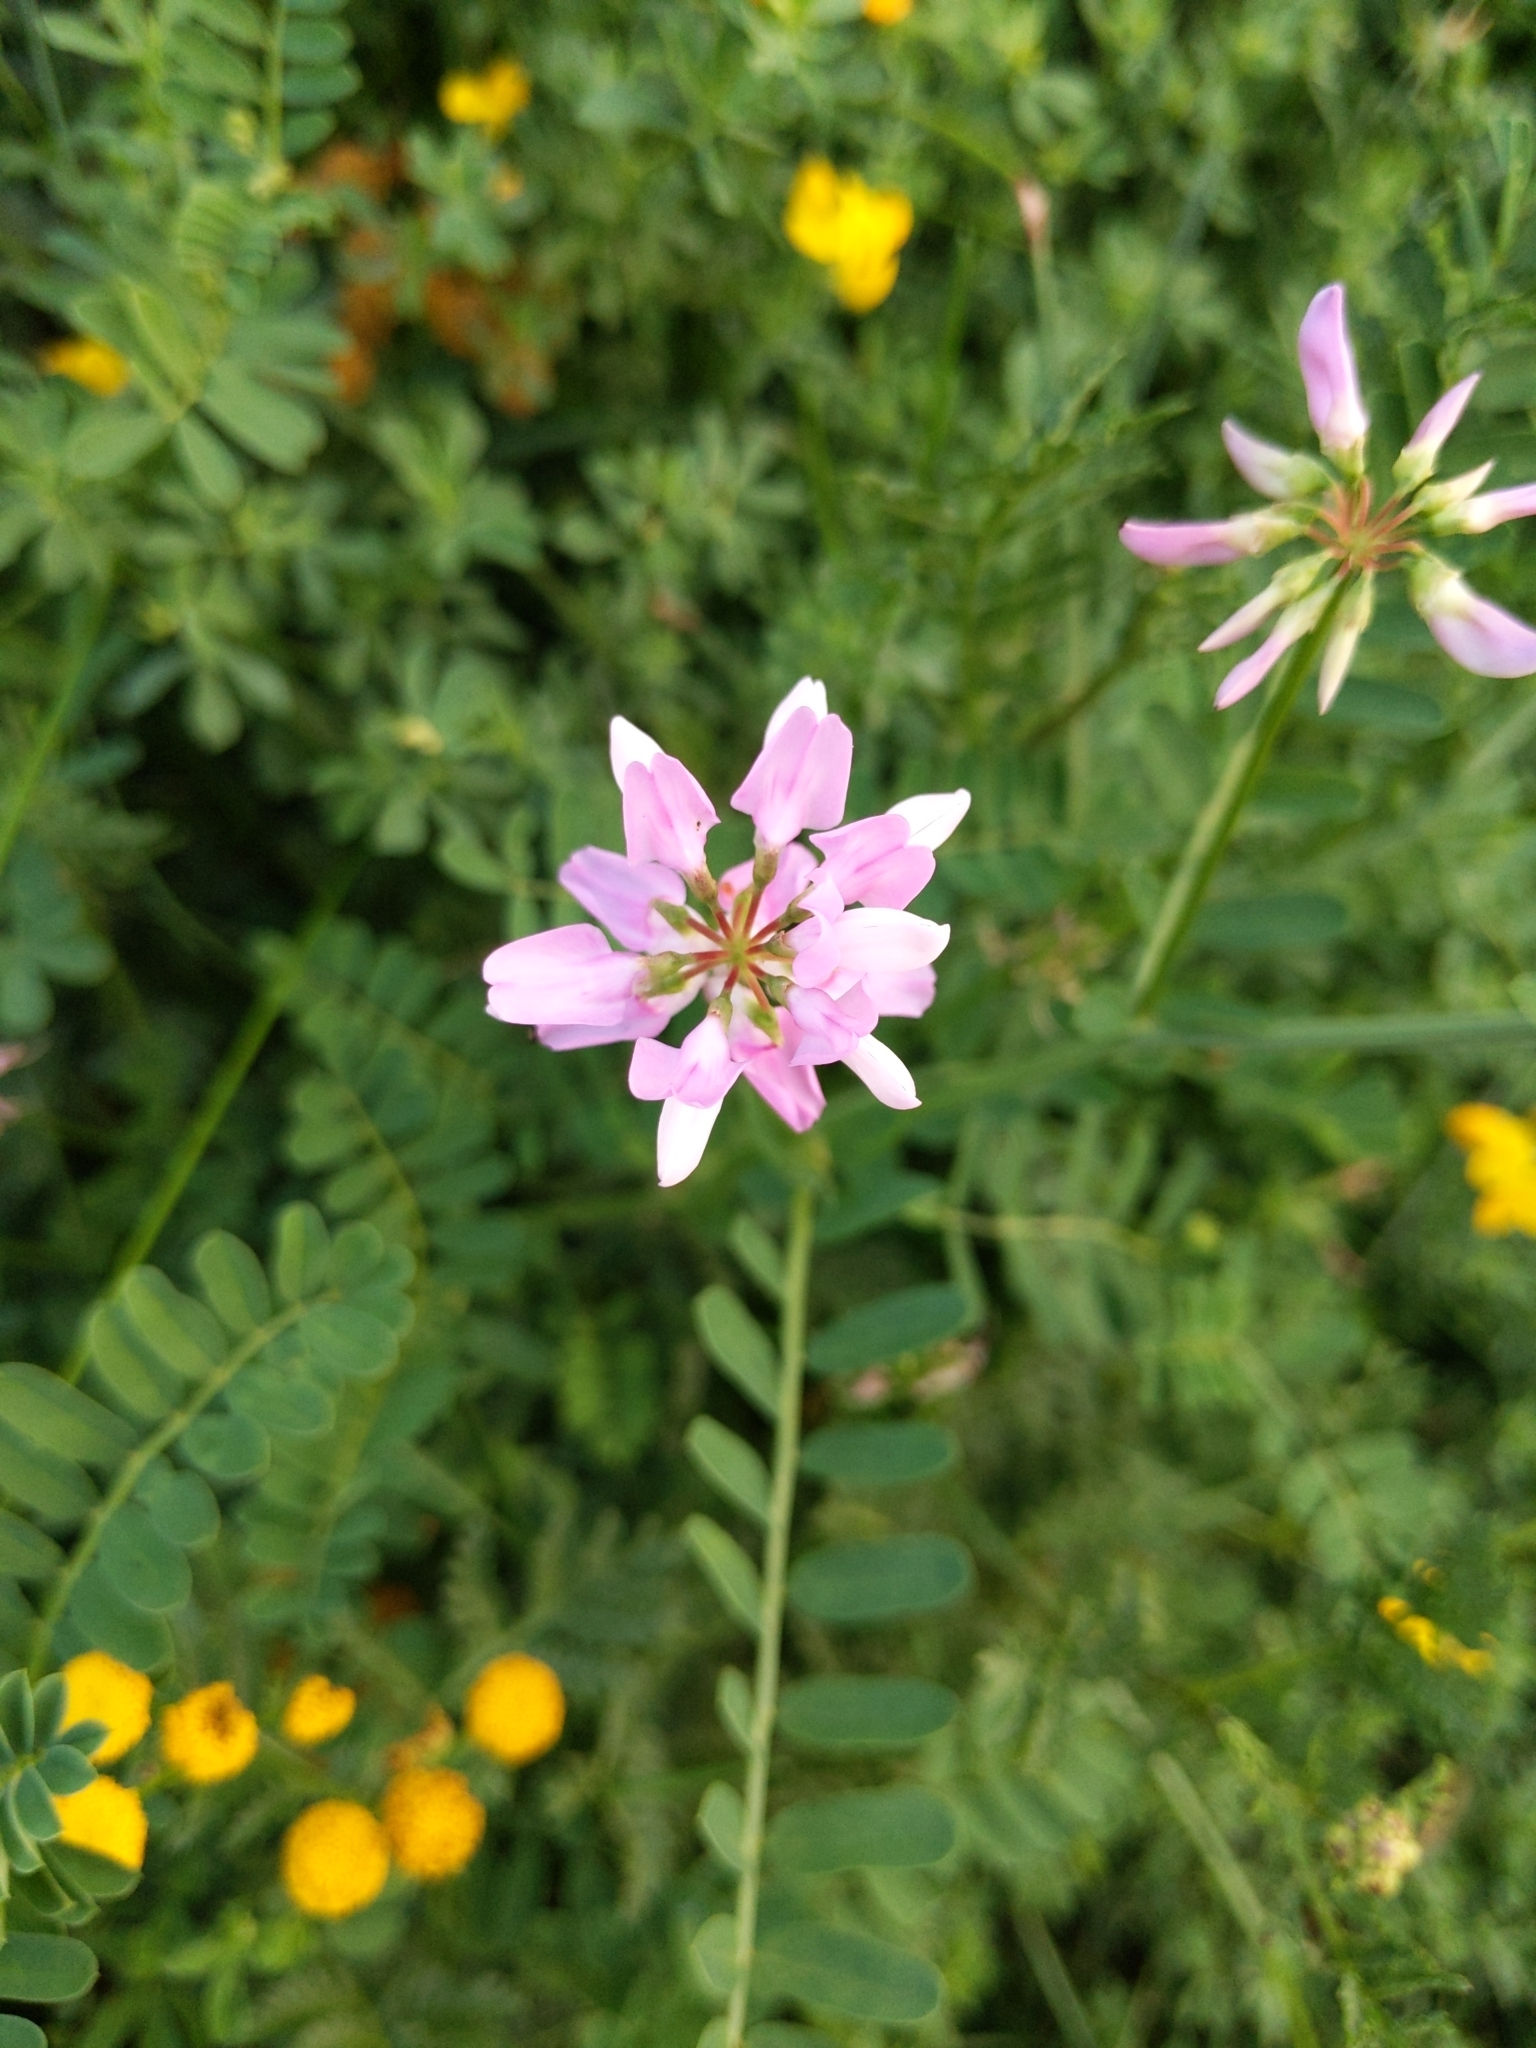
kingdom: Plantae
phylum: Tracheophyta
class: Magnoliopsida
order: Fabales
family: Fabaceae
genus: Coronilla
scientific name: Coronilla varia
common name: Crownvetch
